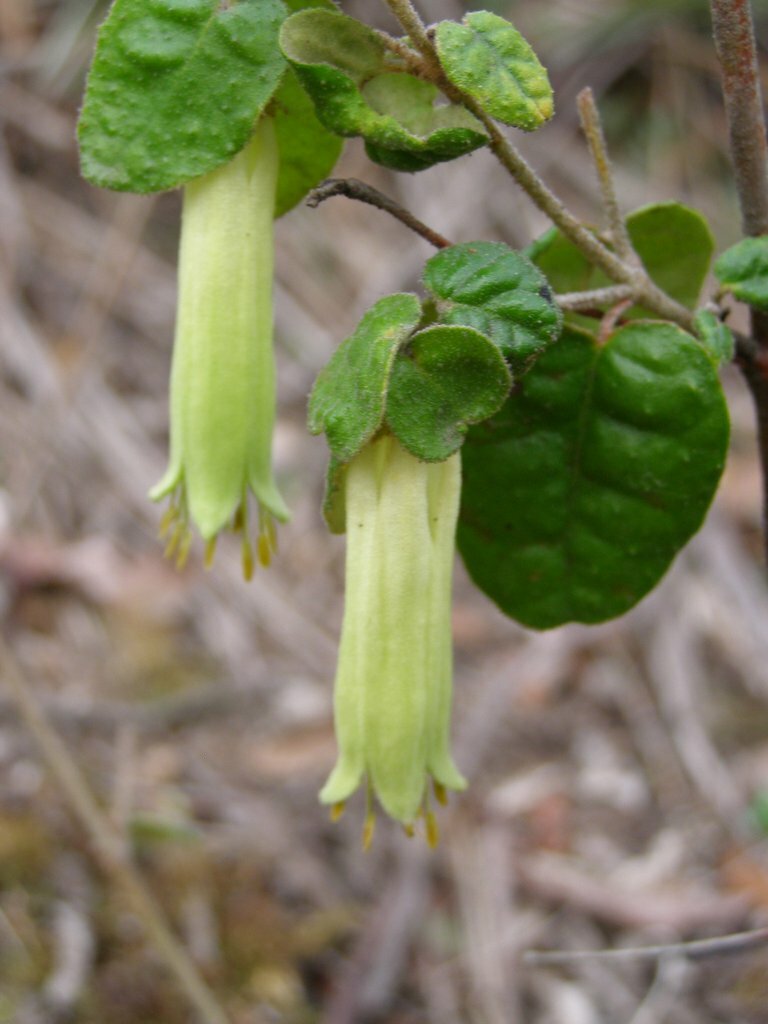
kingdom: Plantae
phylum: Tracheophyta
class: Magnoliopsida
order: Sapindales
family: Rutaceae
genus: Correa
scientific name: Correa reflexa
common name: Common correa
